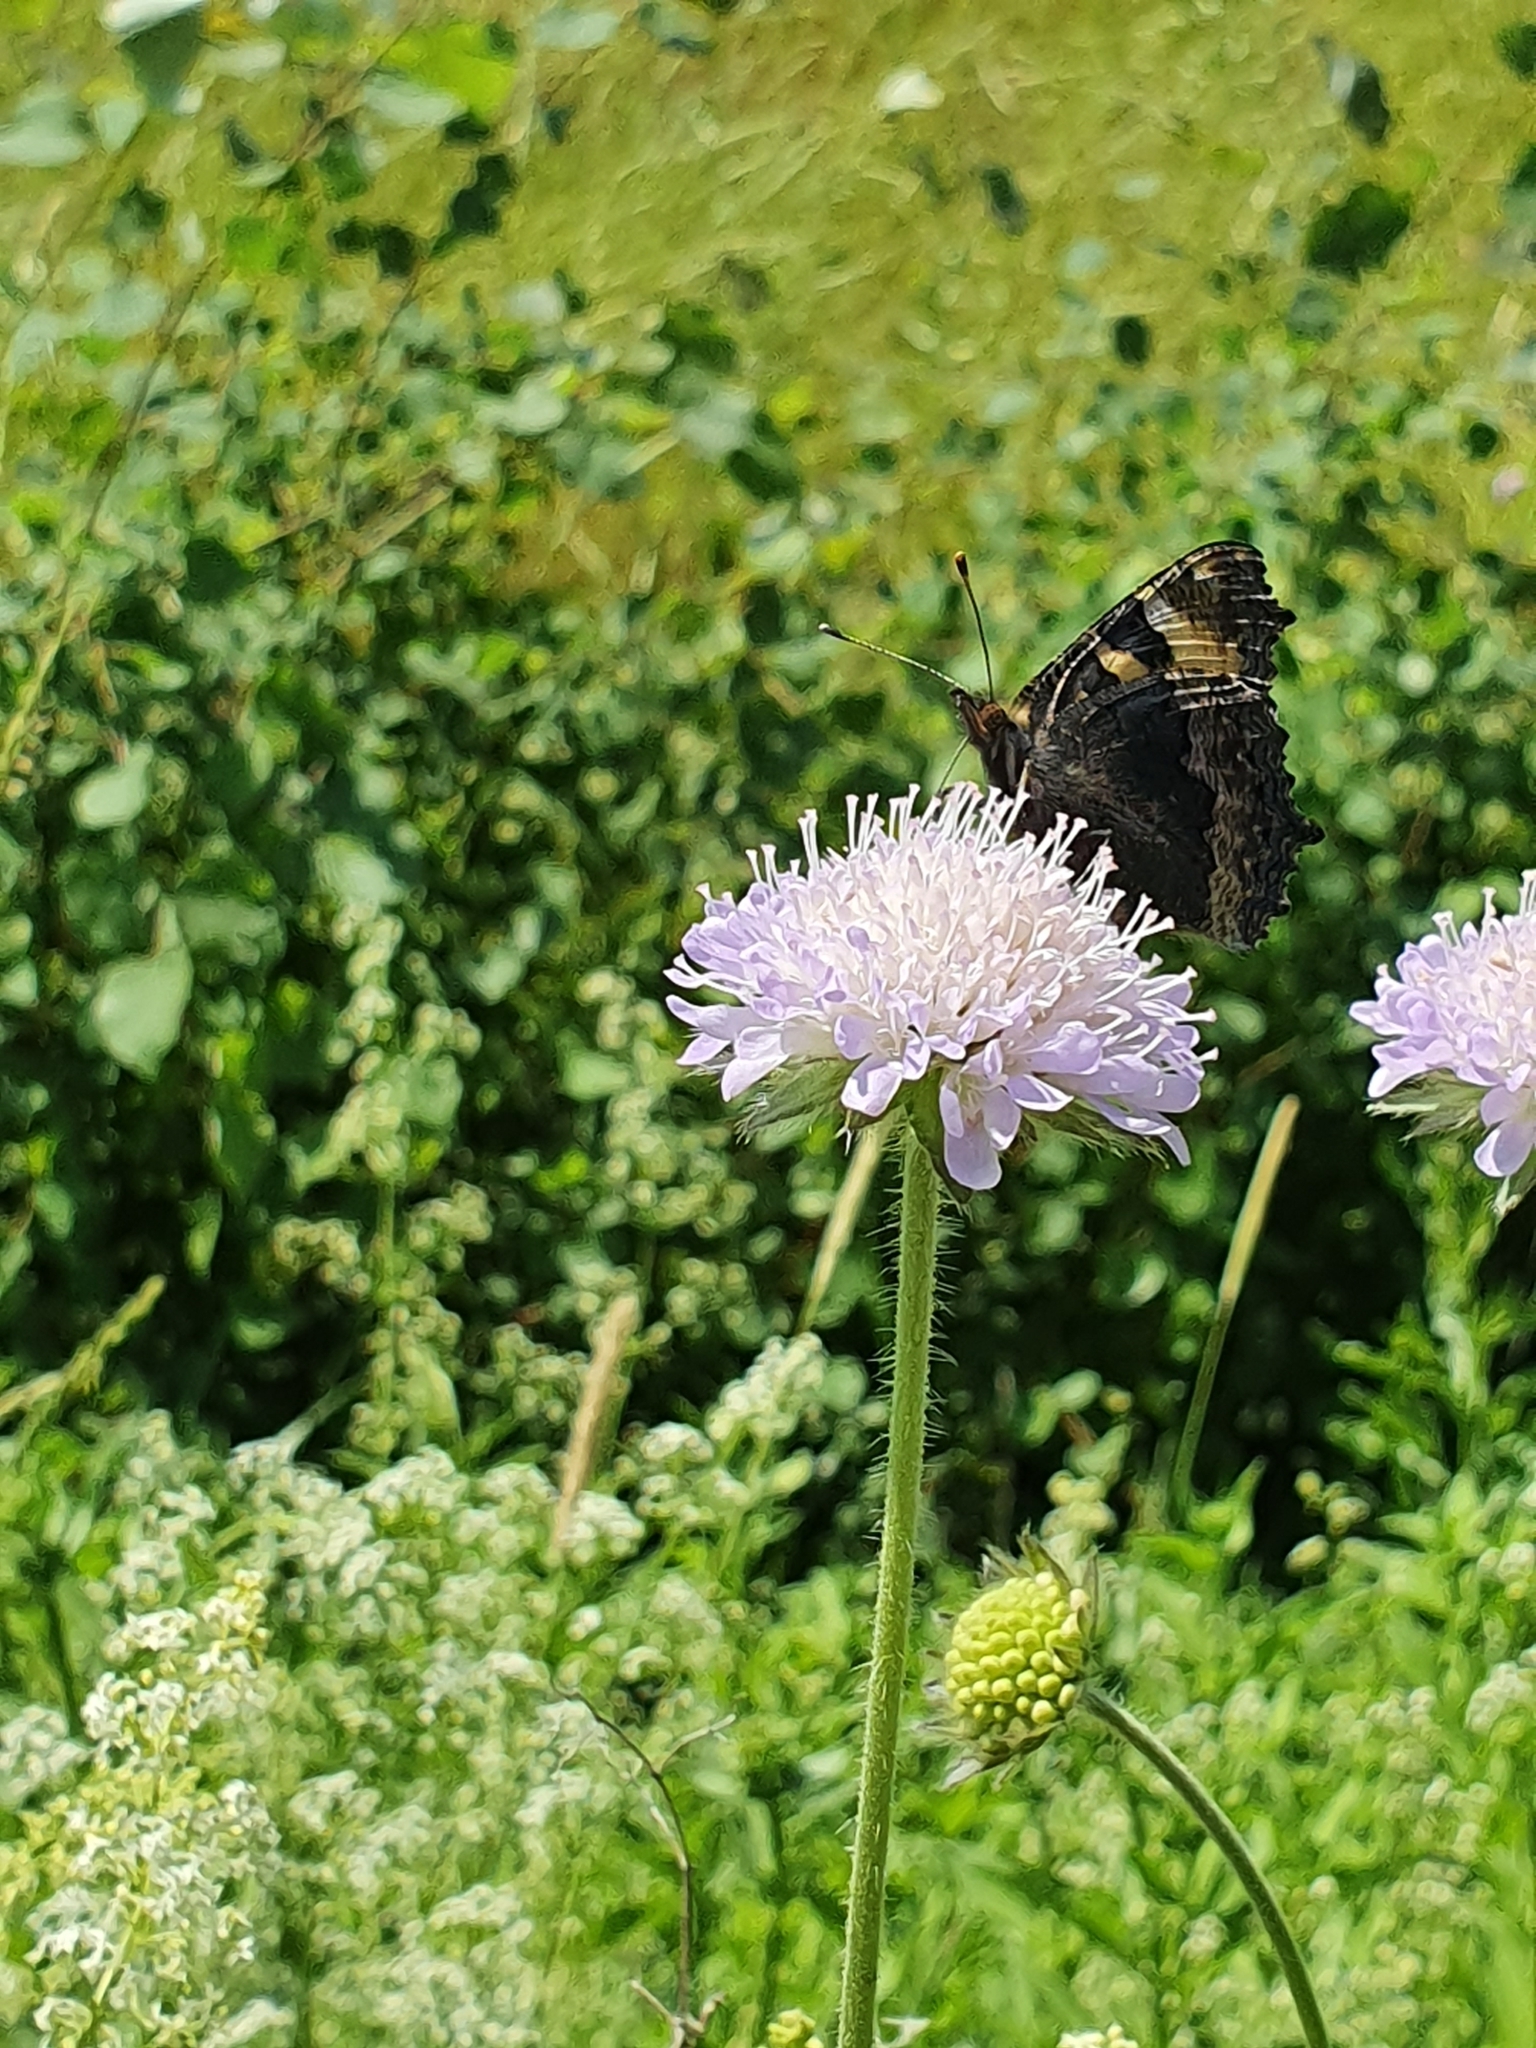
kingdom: Animalia
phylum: Arthropoda
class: Insecta
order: Lepidoptera
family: Nymphalidae
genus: Aglais
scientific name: Aglais urticae
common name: Small tortoiseshell
